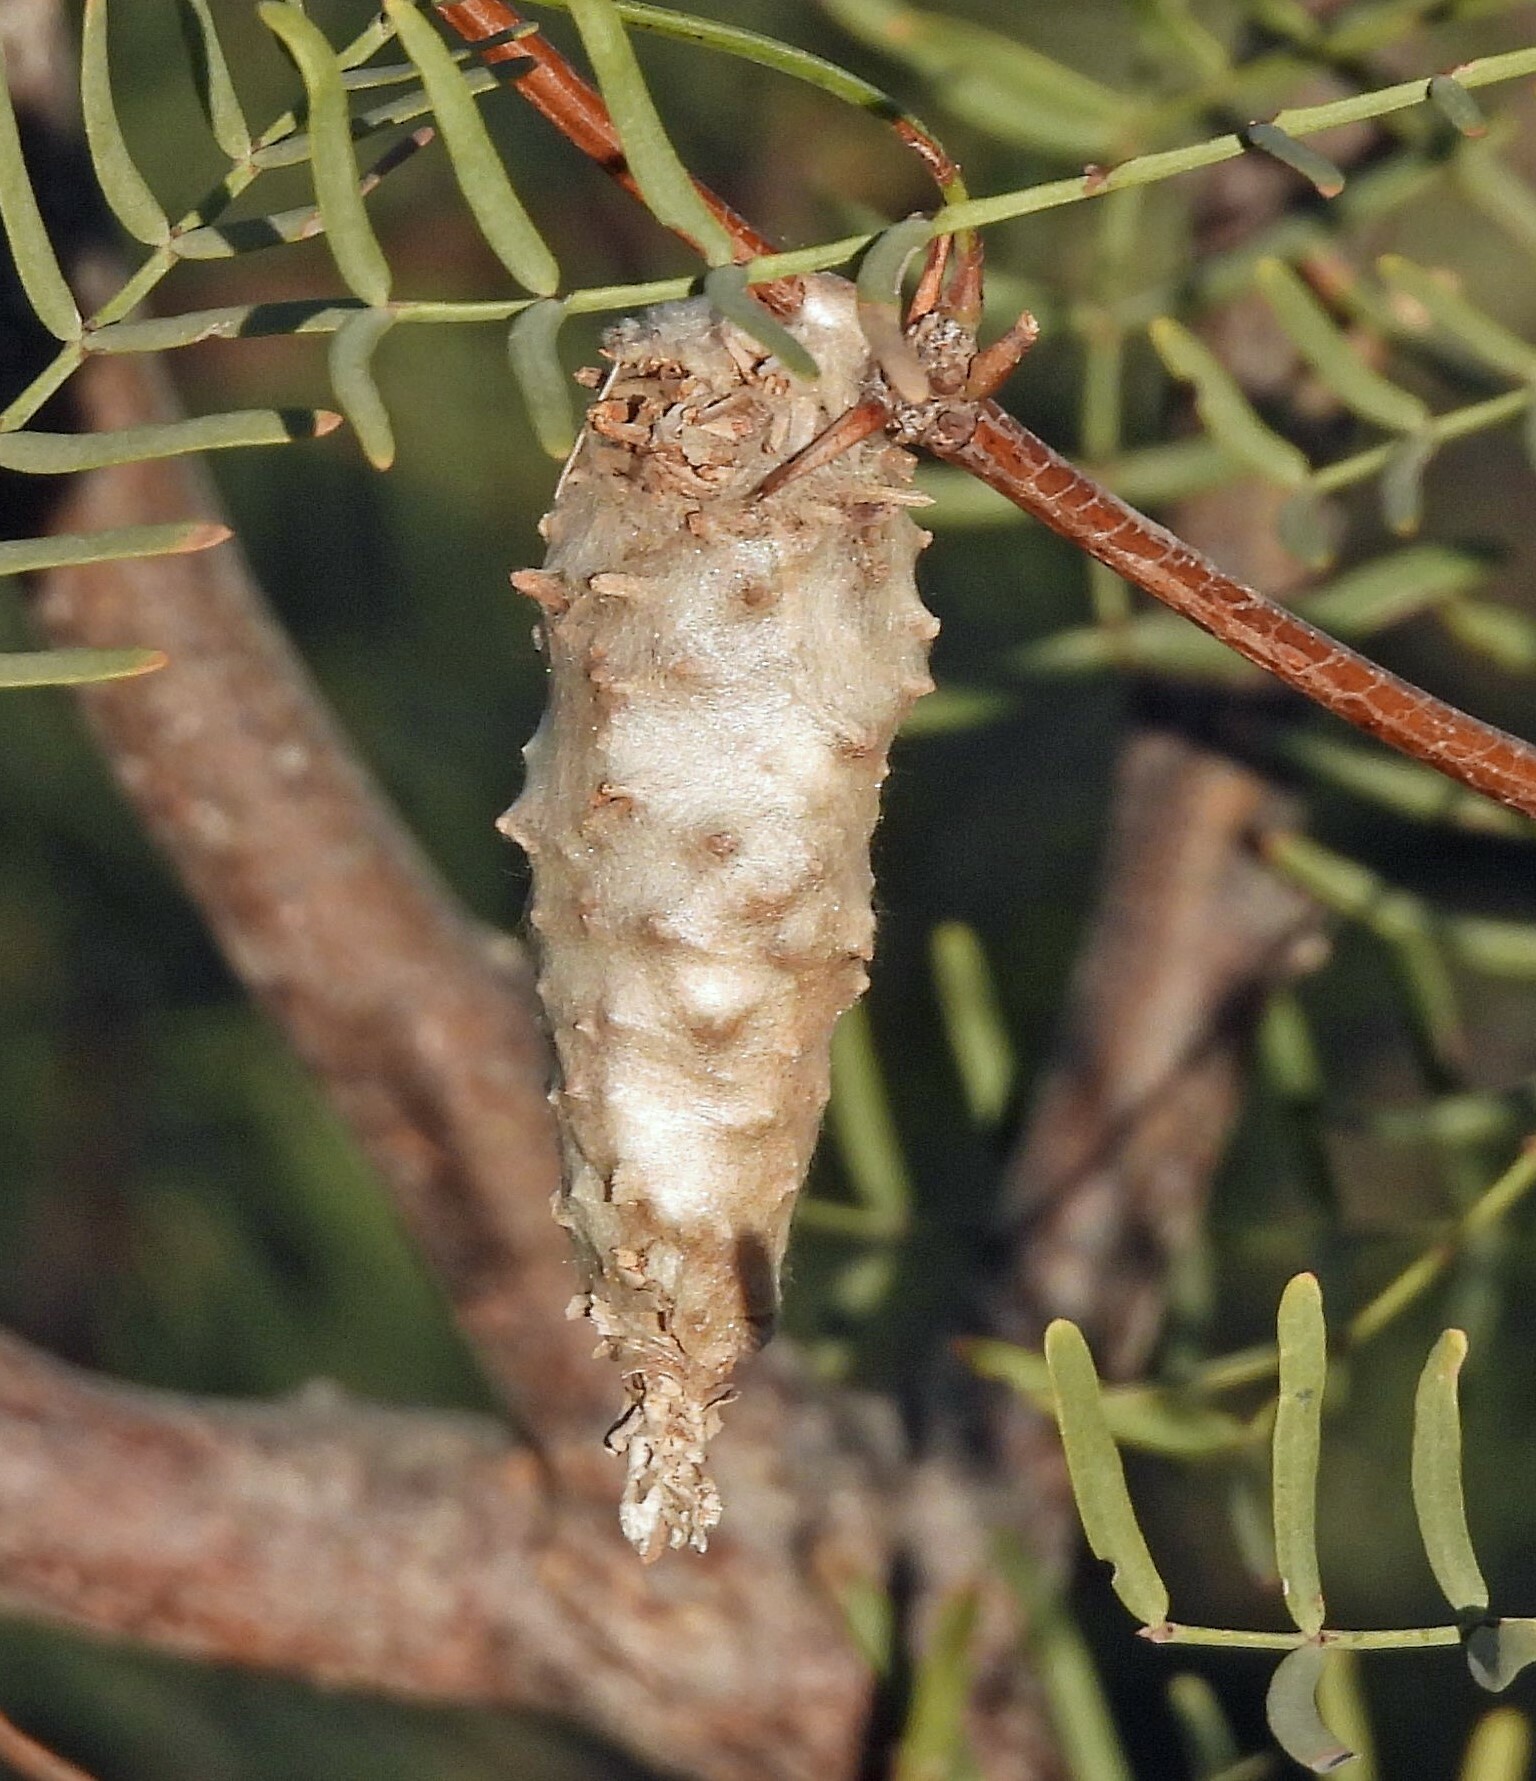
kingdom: Animalia
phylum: Arthropoda
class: Insecta
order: Lepidoptera
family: Psychidae
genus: Oiketicus
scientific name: Oiketicus
